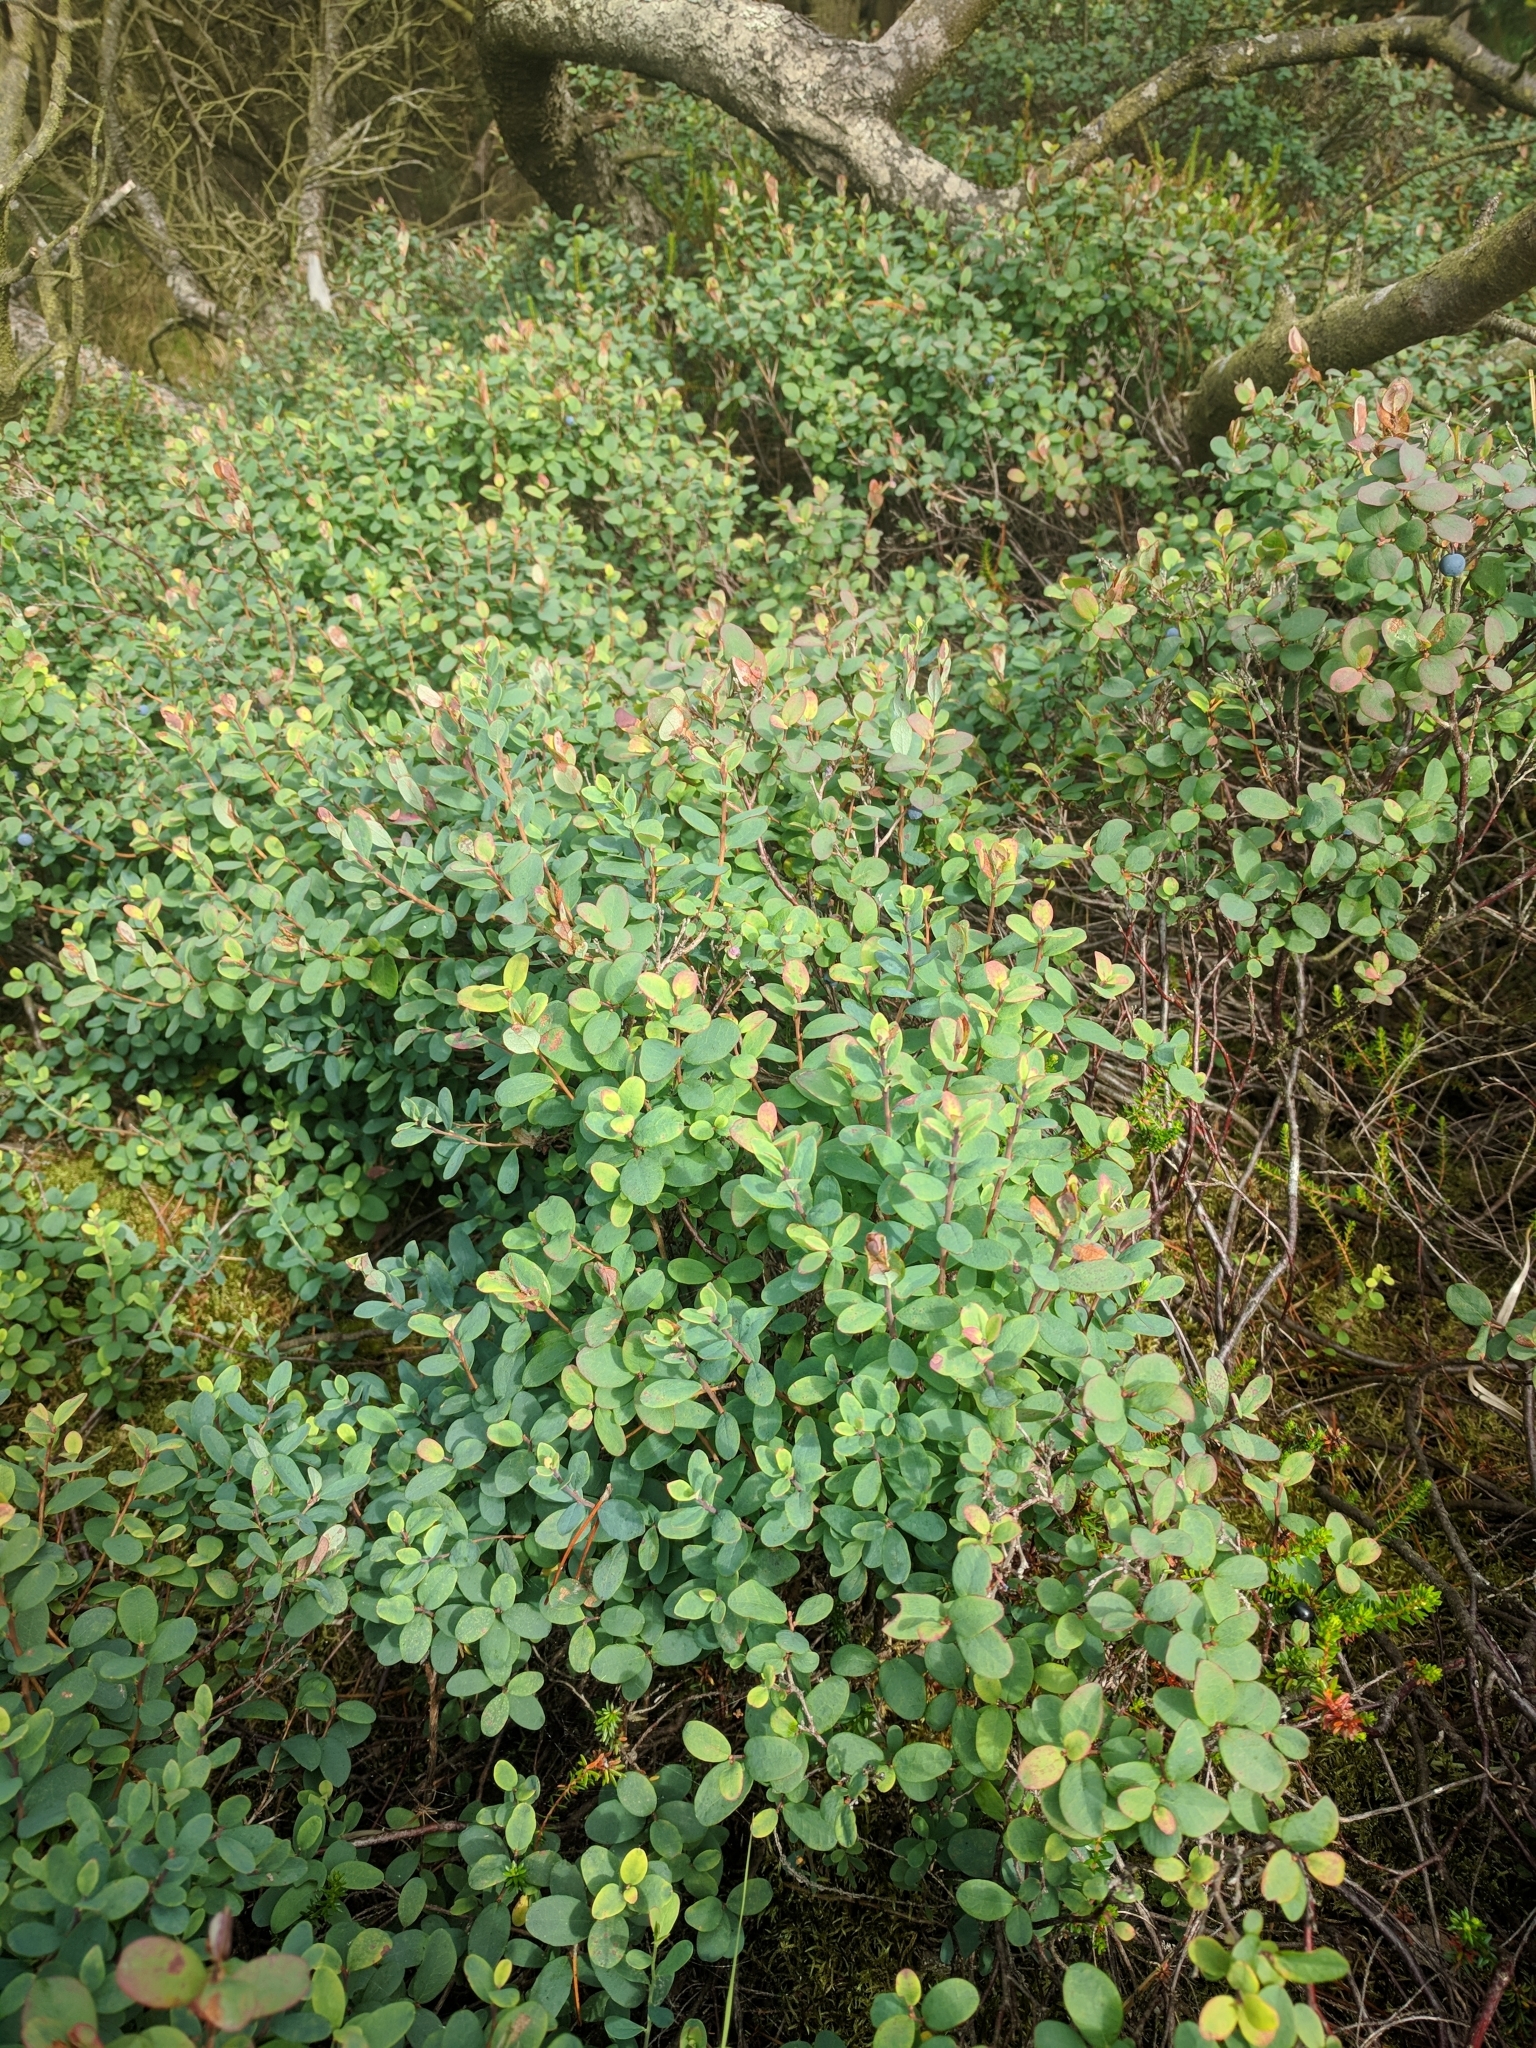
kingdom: Plantae
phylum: Tracheophyta
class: Magnoliopsida
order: Ericales
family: Ericaceae
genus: Vaccinium
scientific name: Vaccinium uliginosum
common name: Bog bilberry
